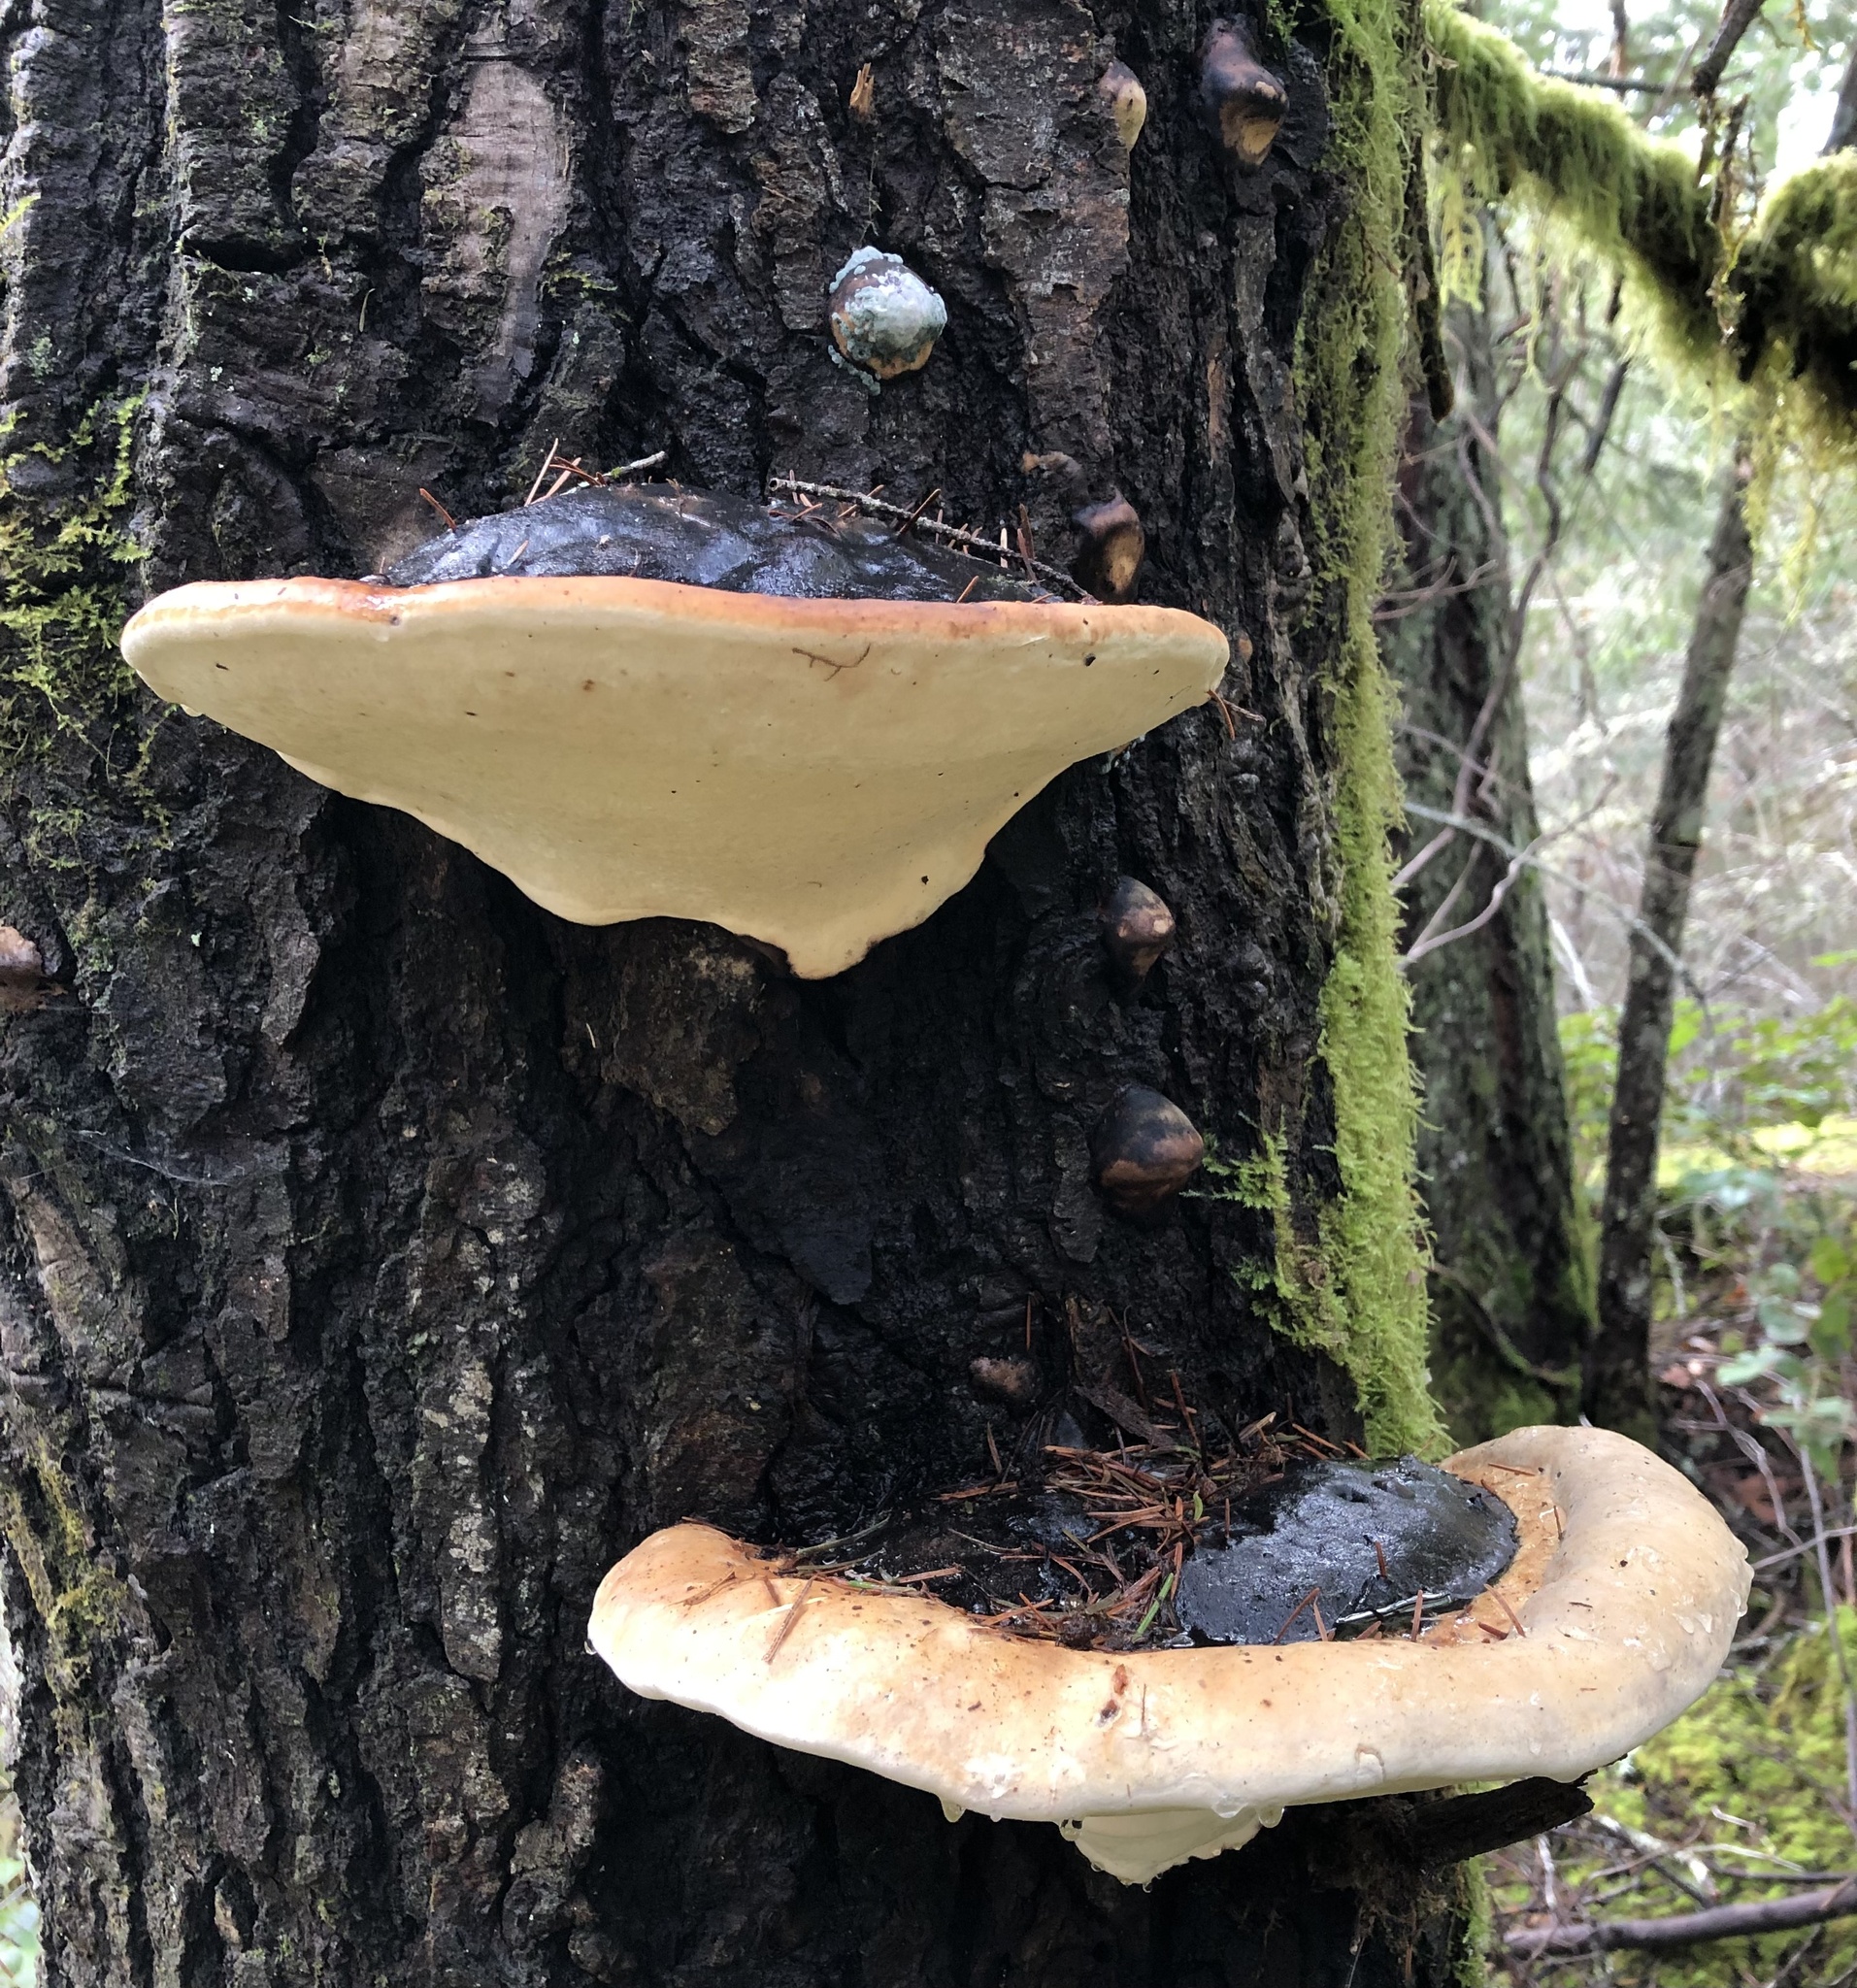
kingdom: Fungi
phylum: Basidiomycota
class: Agaricomycetes
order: Polyporales
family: Fomitopsidaceae
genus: Fomitopsis
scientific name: Fomitopsis mounceae
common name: Northern red belt
